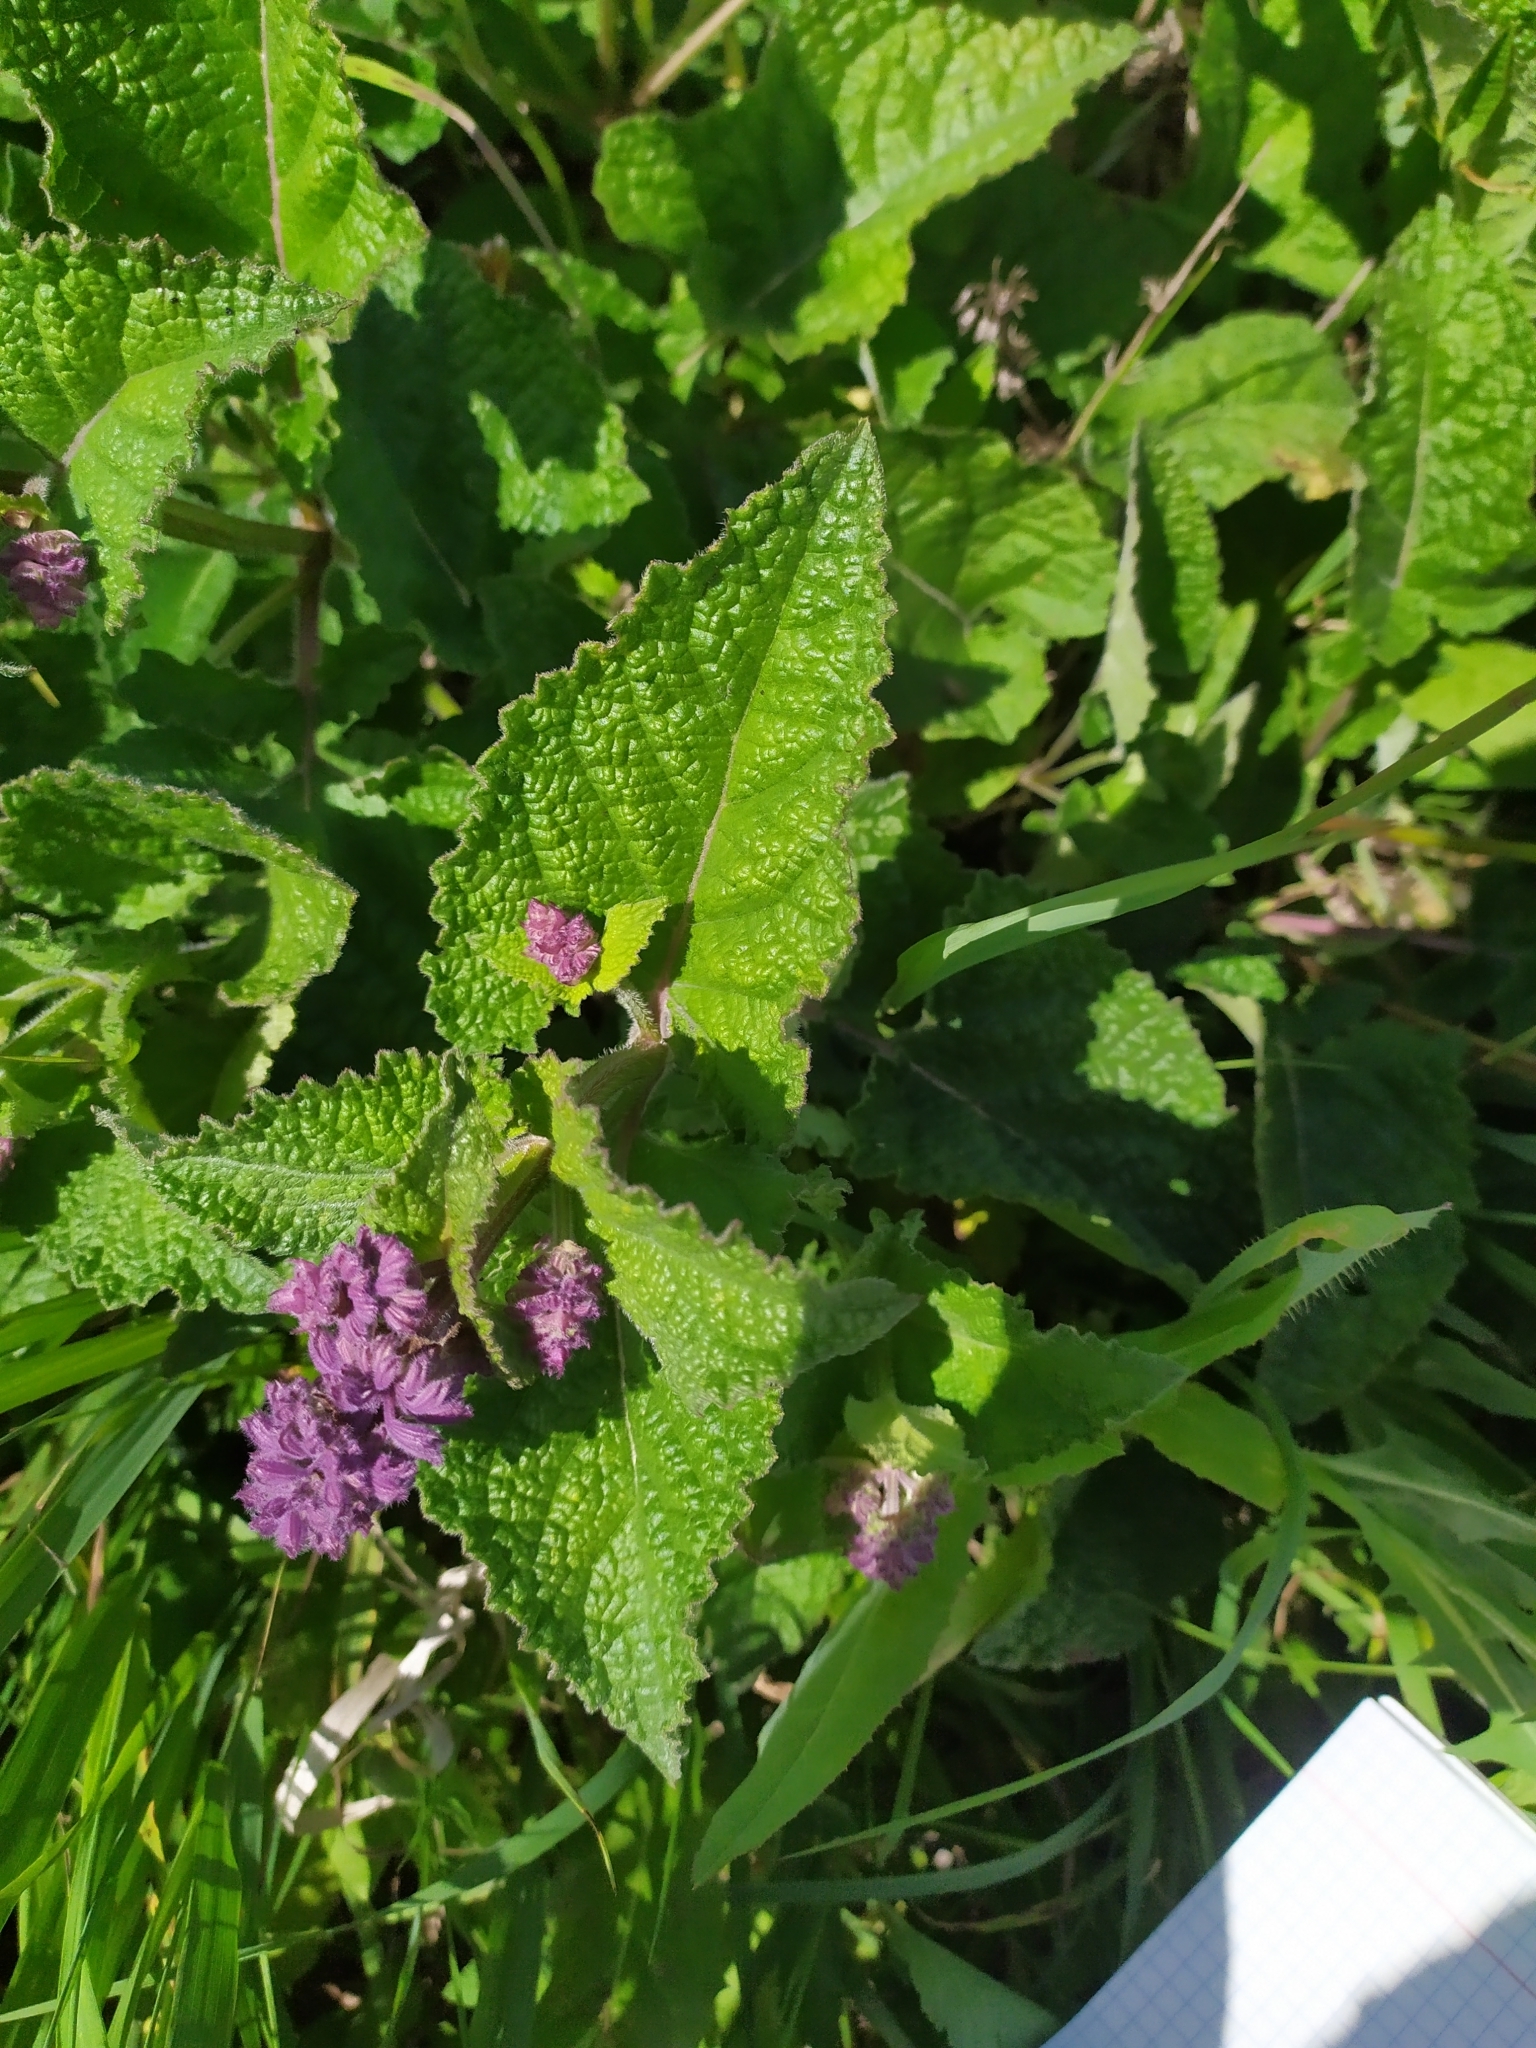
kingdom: Plantae
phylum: Tracheophyta
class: Magnoliopsida
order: Lamiales
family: Lamiaceae
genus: Salvia
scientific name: Salvia verticillata
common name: Whorled clary
